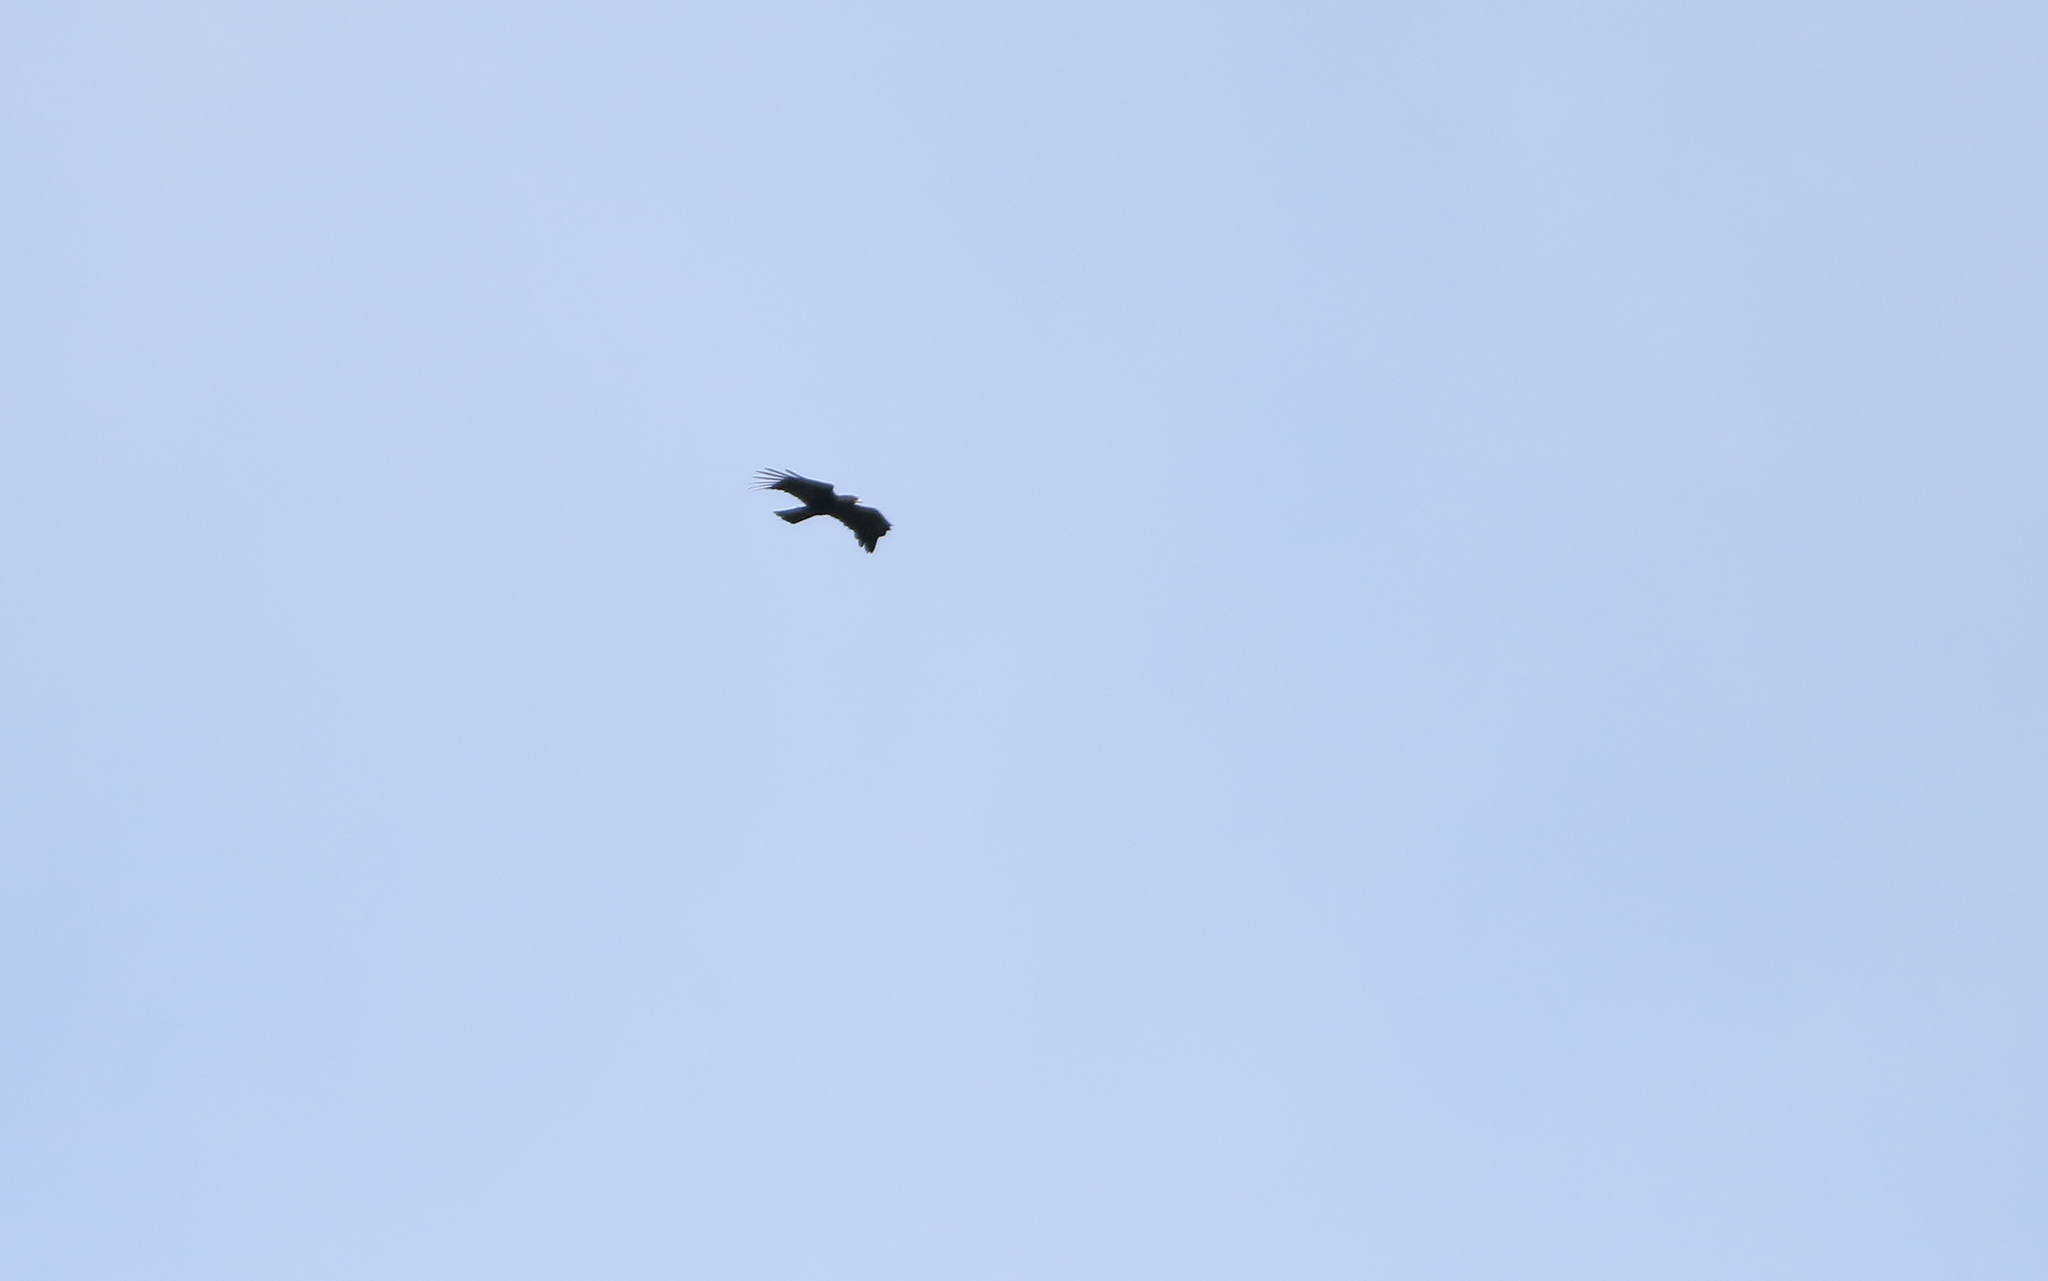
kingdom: Animalia
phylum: Chordata
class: Aves
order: Accipitriformes
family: Accipitridae
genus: Ictinaetus
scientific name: Ictinaetus malayensis
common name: Black eagle
